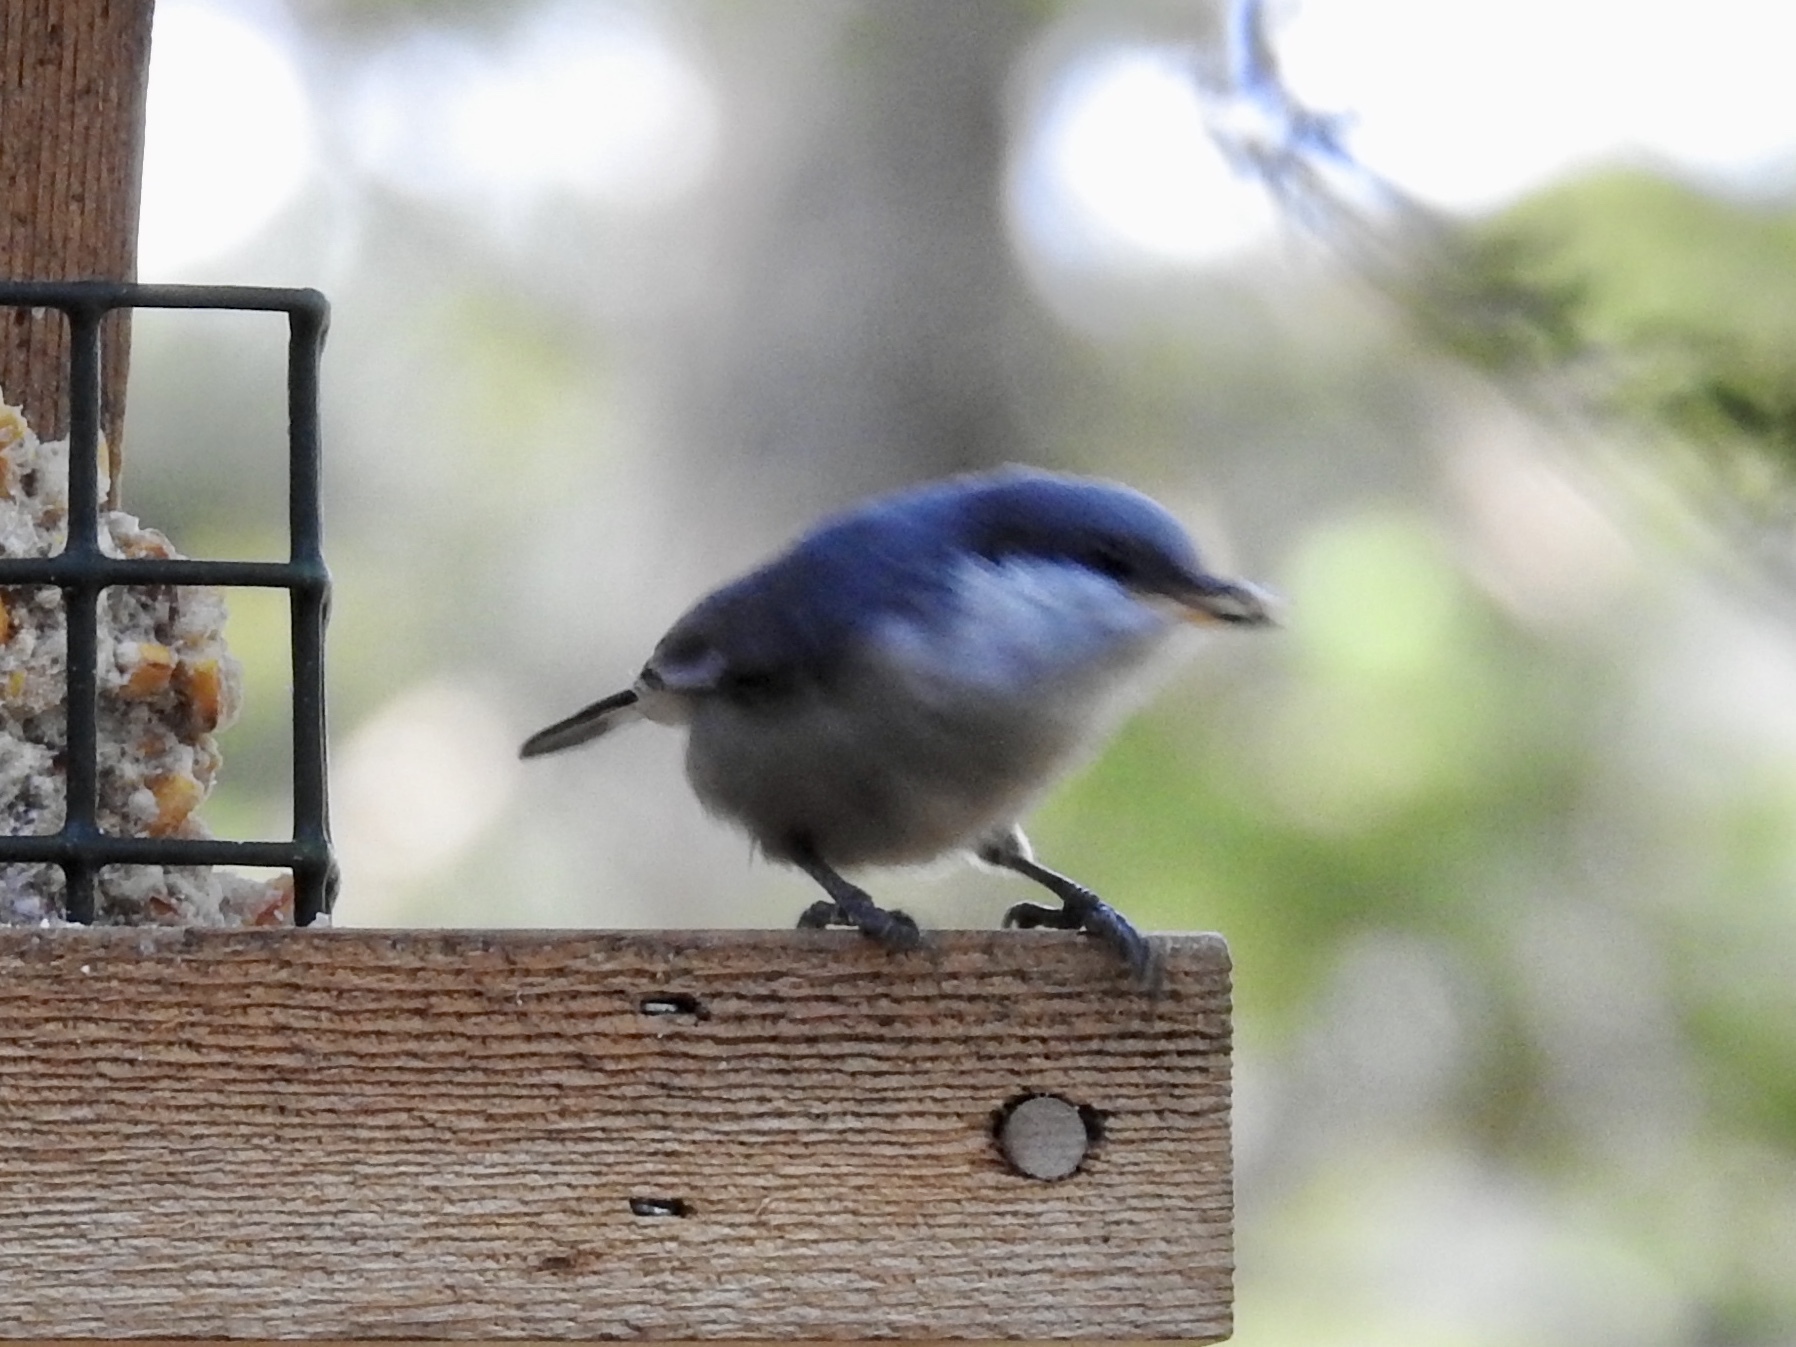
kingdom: Animalia
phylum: Chordata
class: Aves
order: Passeriformes
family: Sittidae
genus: Sitta
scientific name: Sitta pygmaea
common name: Pygmy nuthatch
